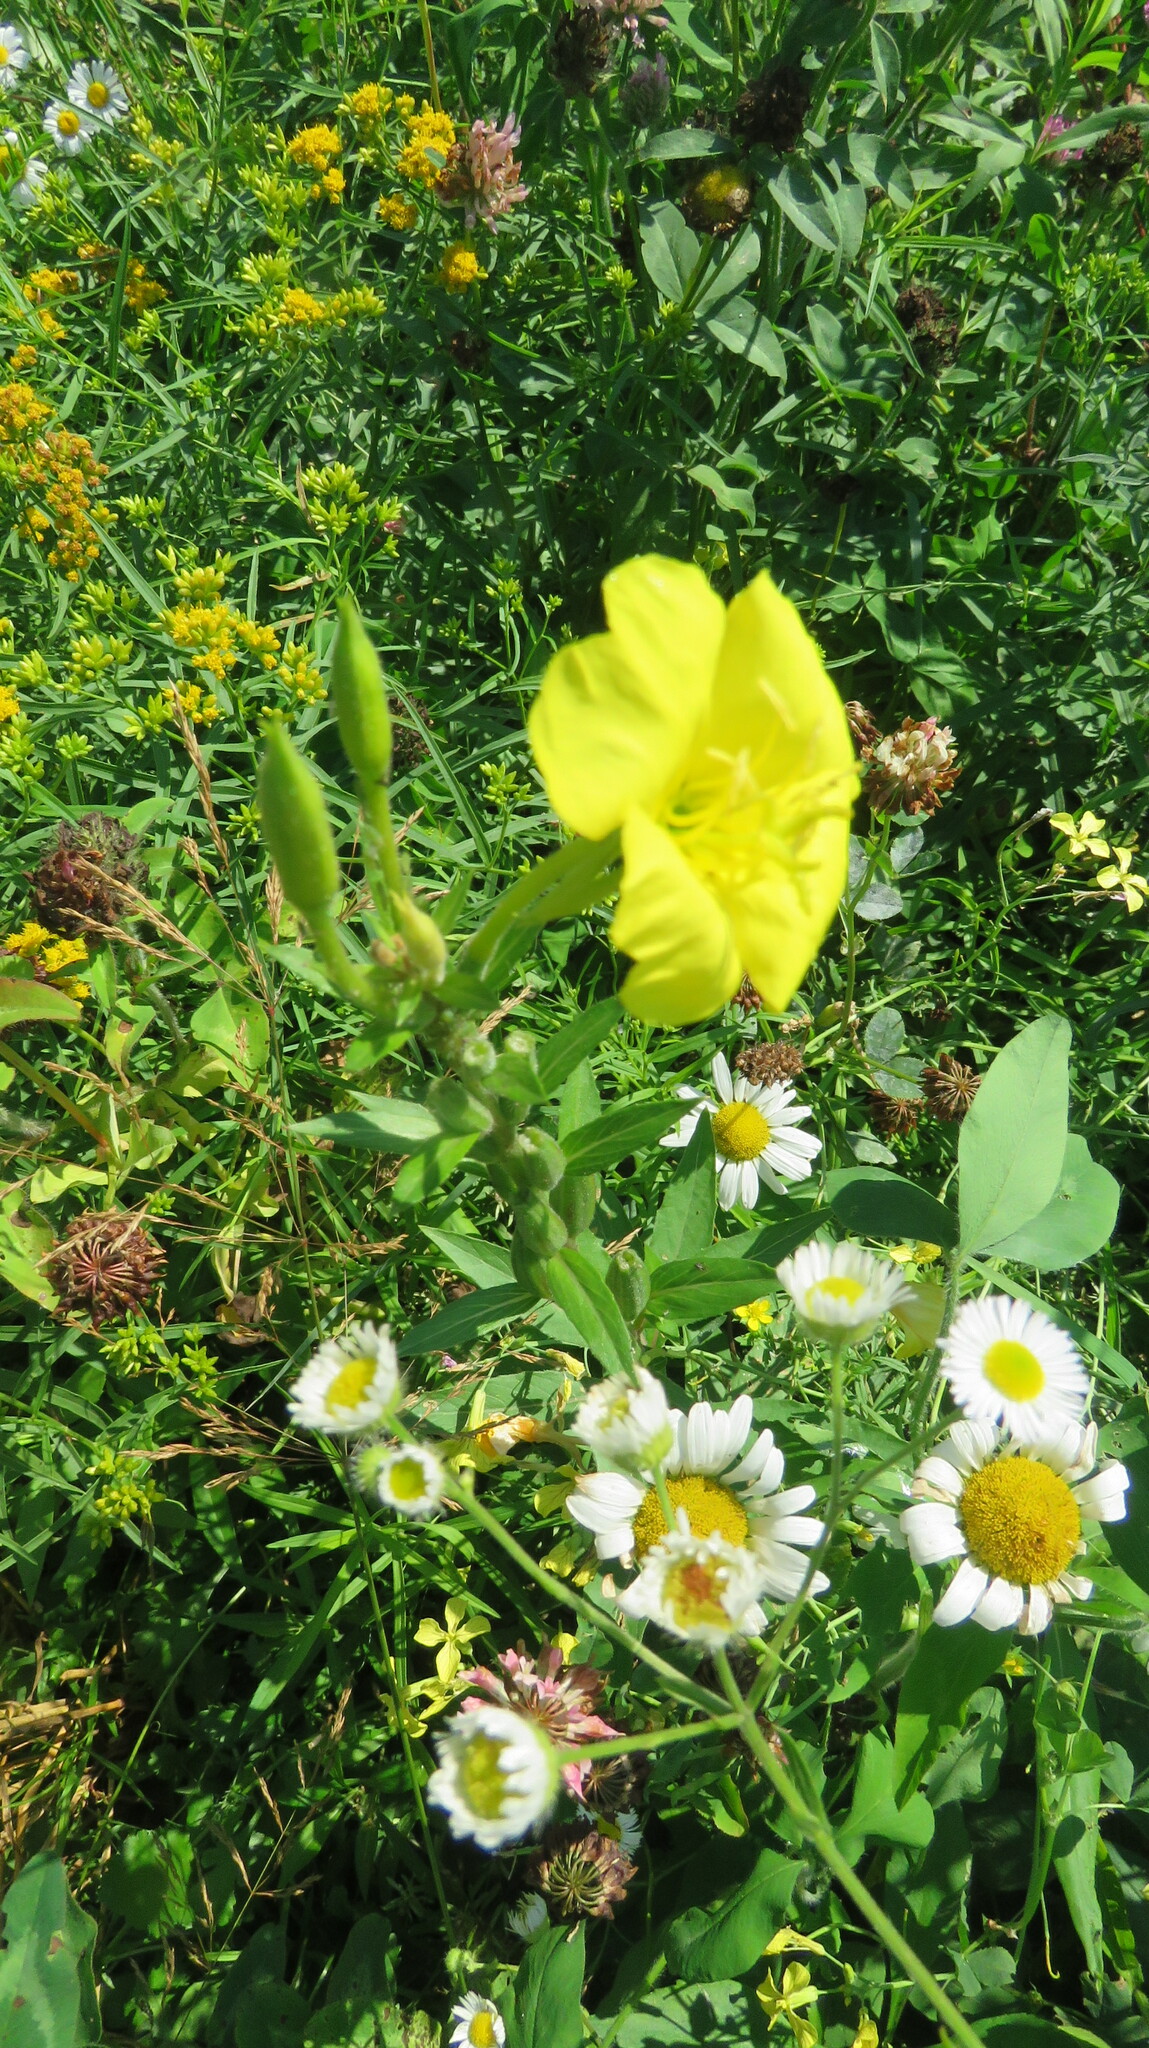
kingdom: Plantae
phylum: Tracheophyta
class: Magnoliopsida
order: Myrtales
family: Onagraceae
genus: Oenothera
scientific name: Oenothera biennis
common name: Common evening-primrose
